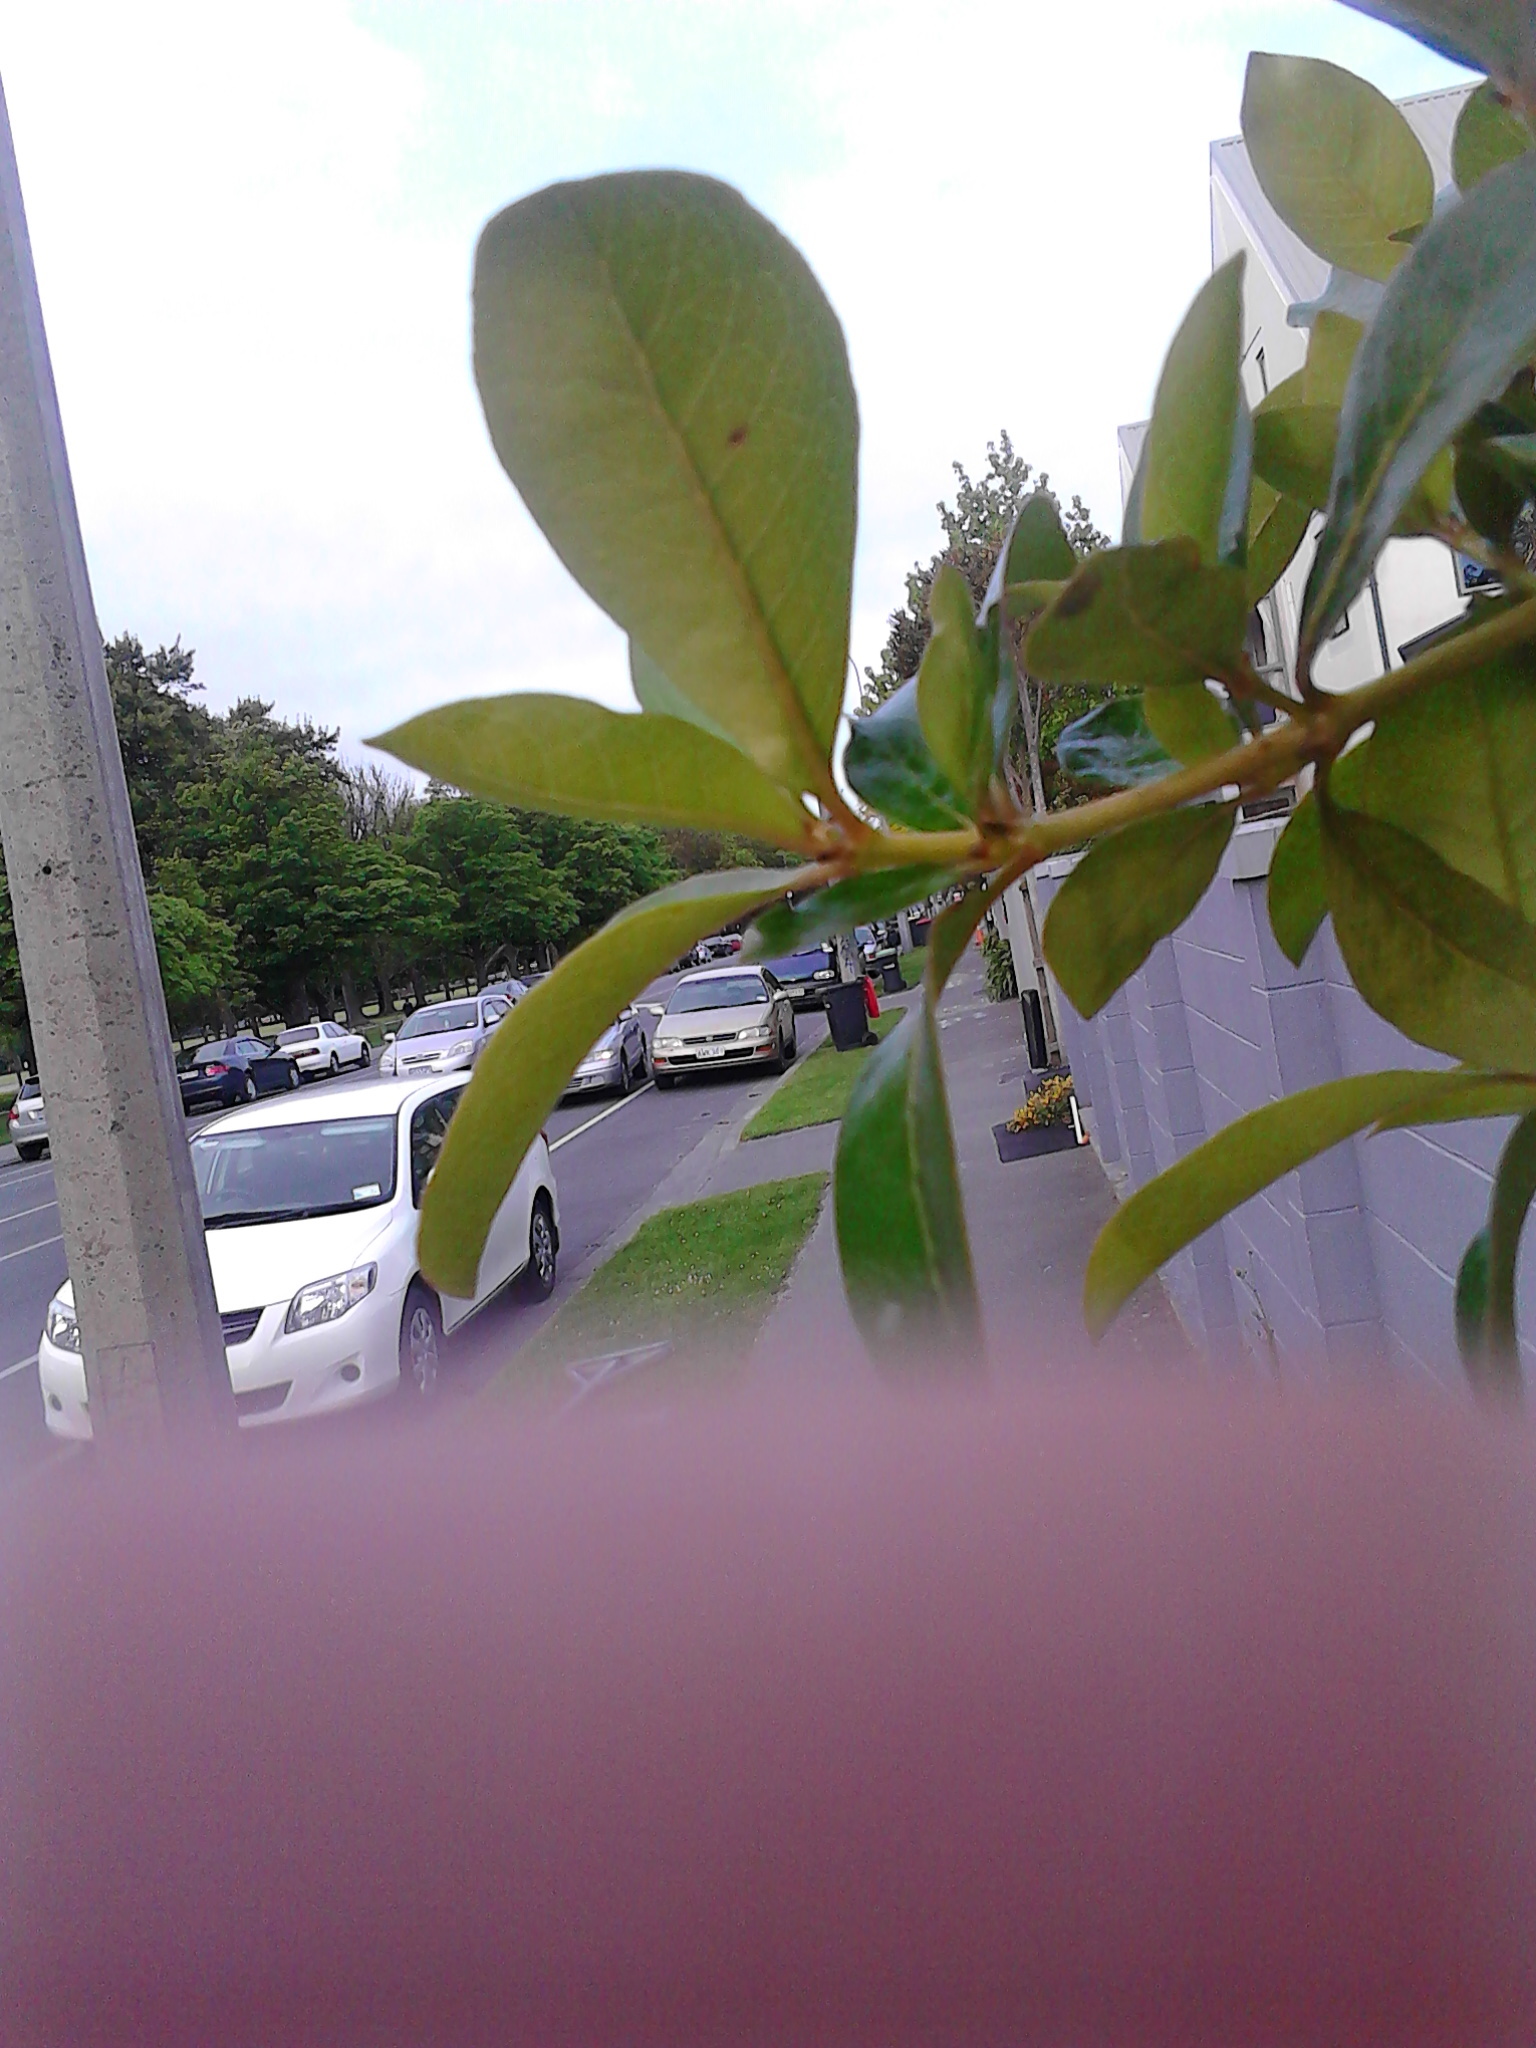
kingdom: Plantae
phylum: Tracheophyta
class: Magnoliopsida
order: Gentianales
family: Rubiaceae
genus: Coprosma
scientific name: Coprosma robusta
